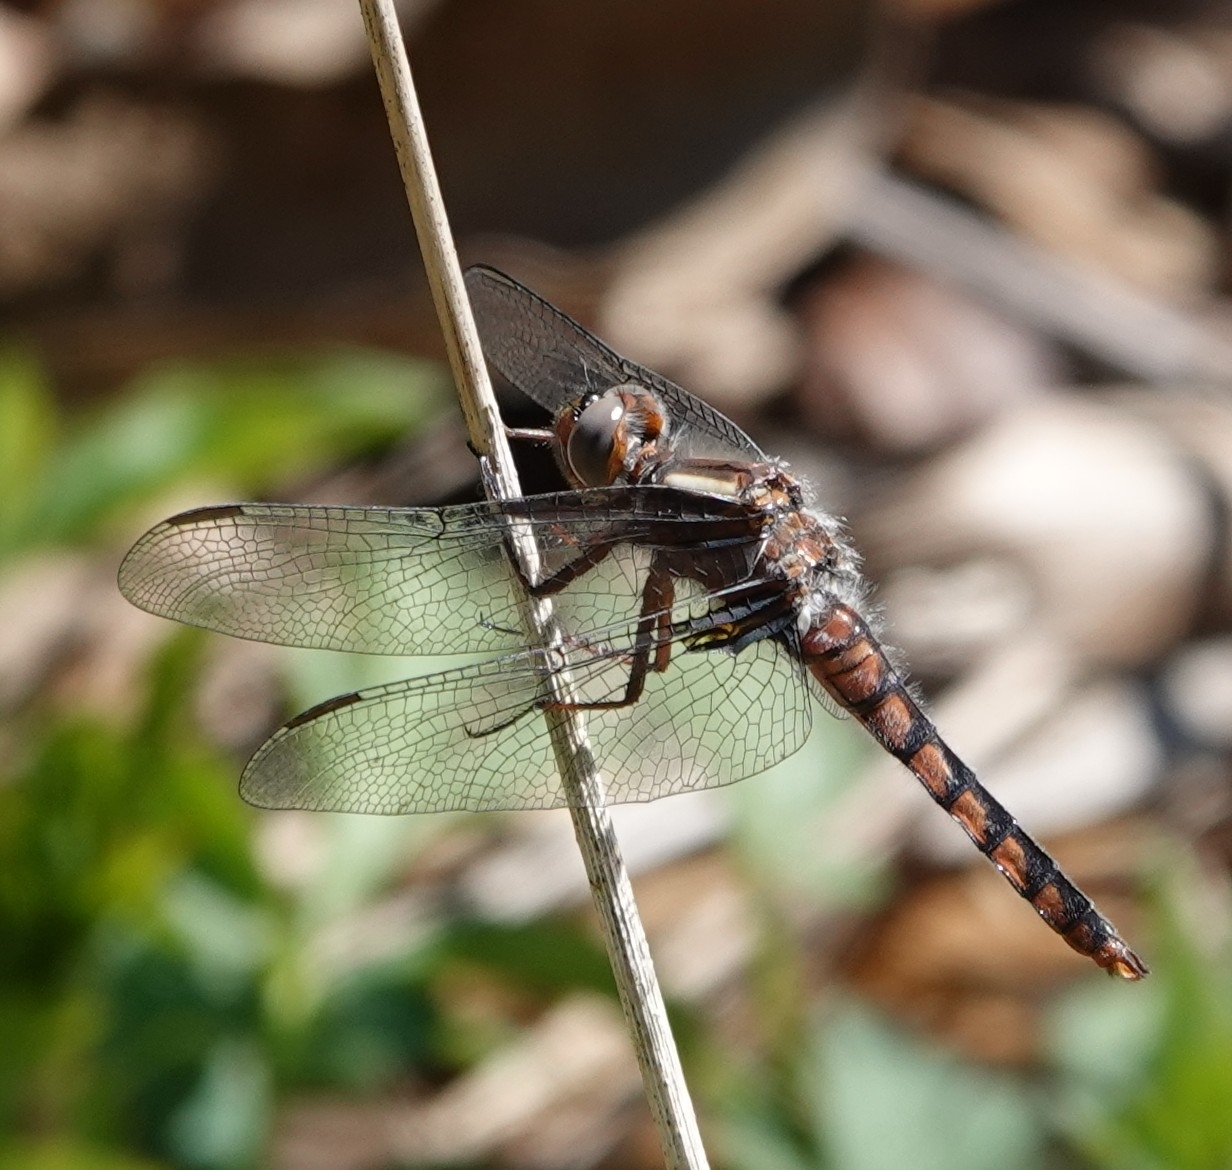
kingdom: Animalia
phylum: Arthropoda
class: Insecta
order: Odonata
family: Libellulidae
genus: Ladona
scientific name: Ladona deplanata
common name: Blue corporal
